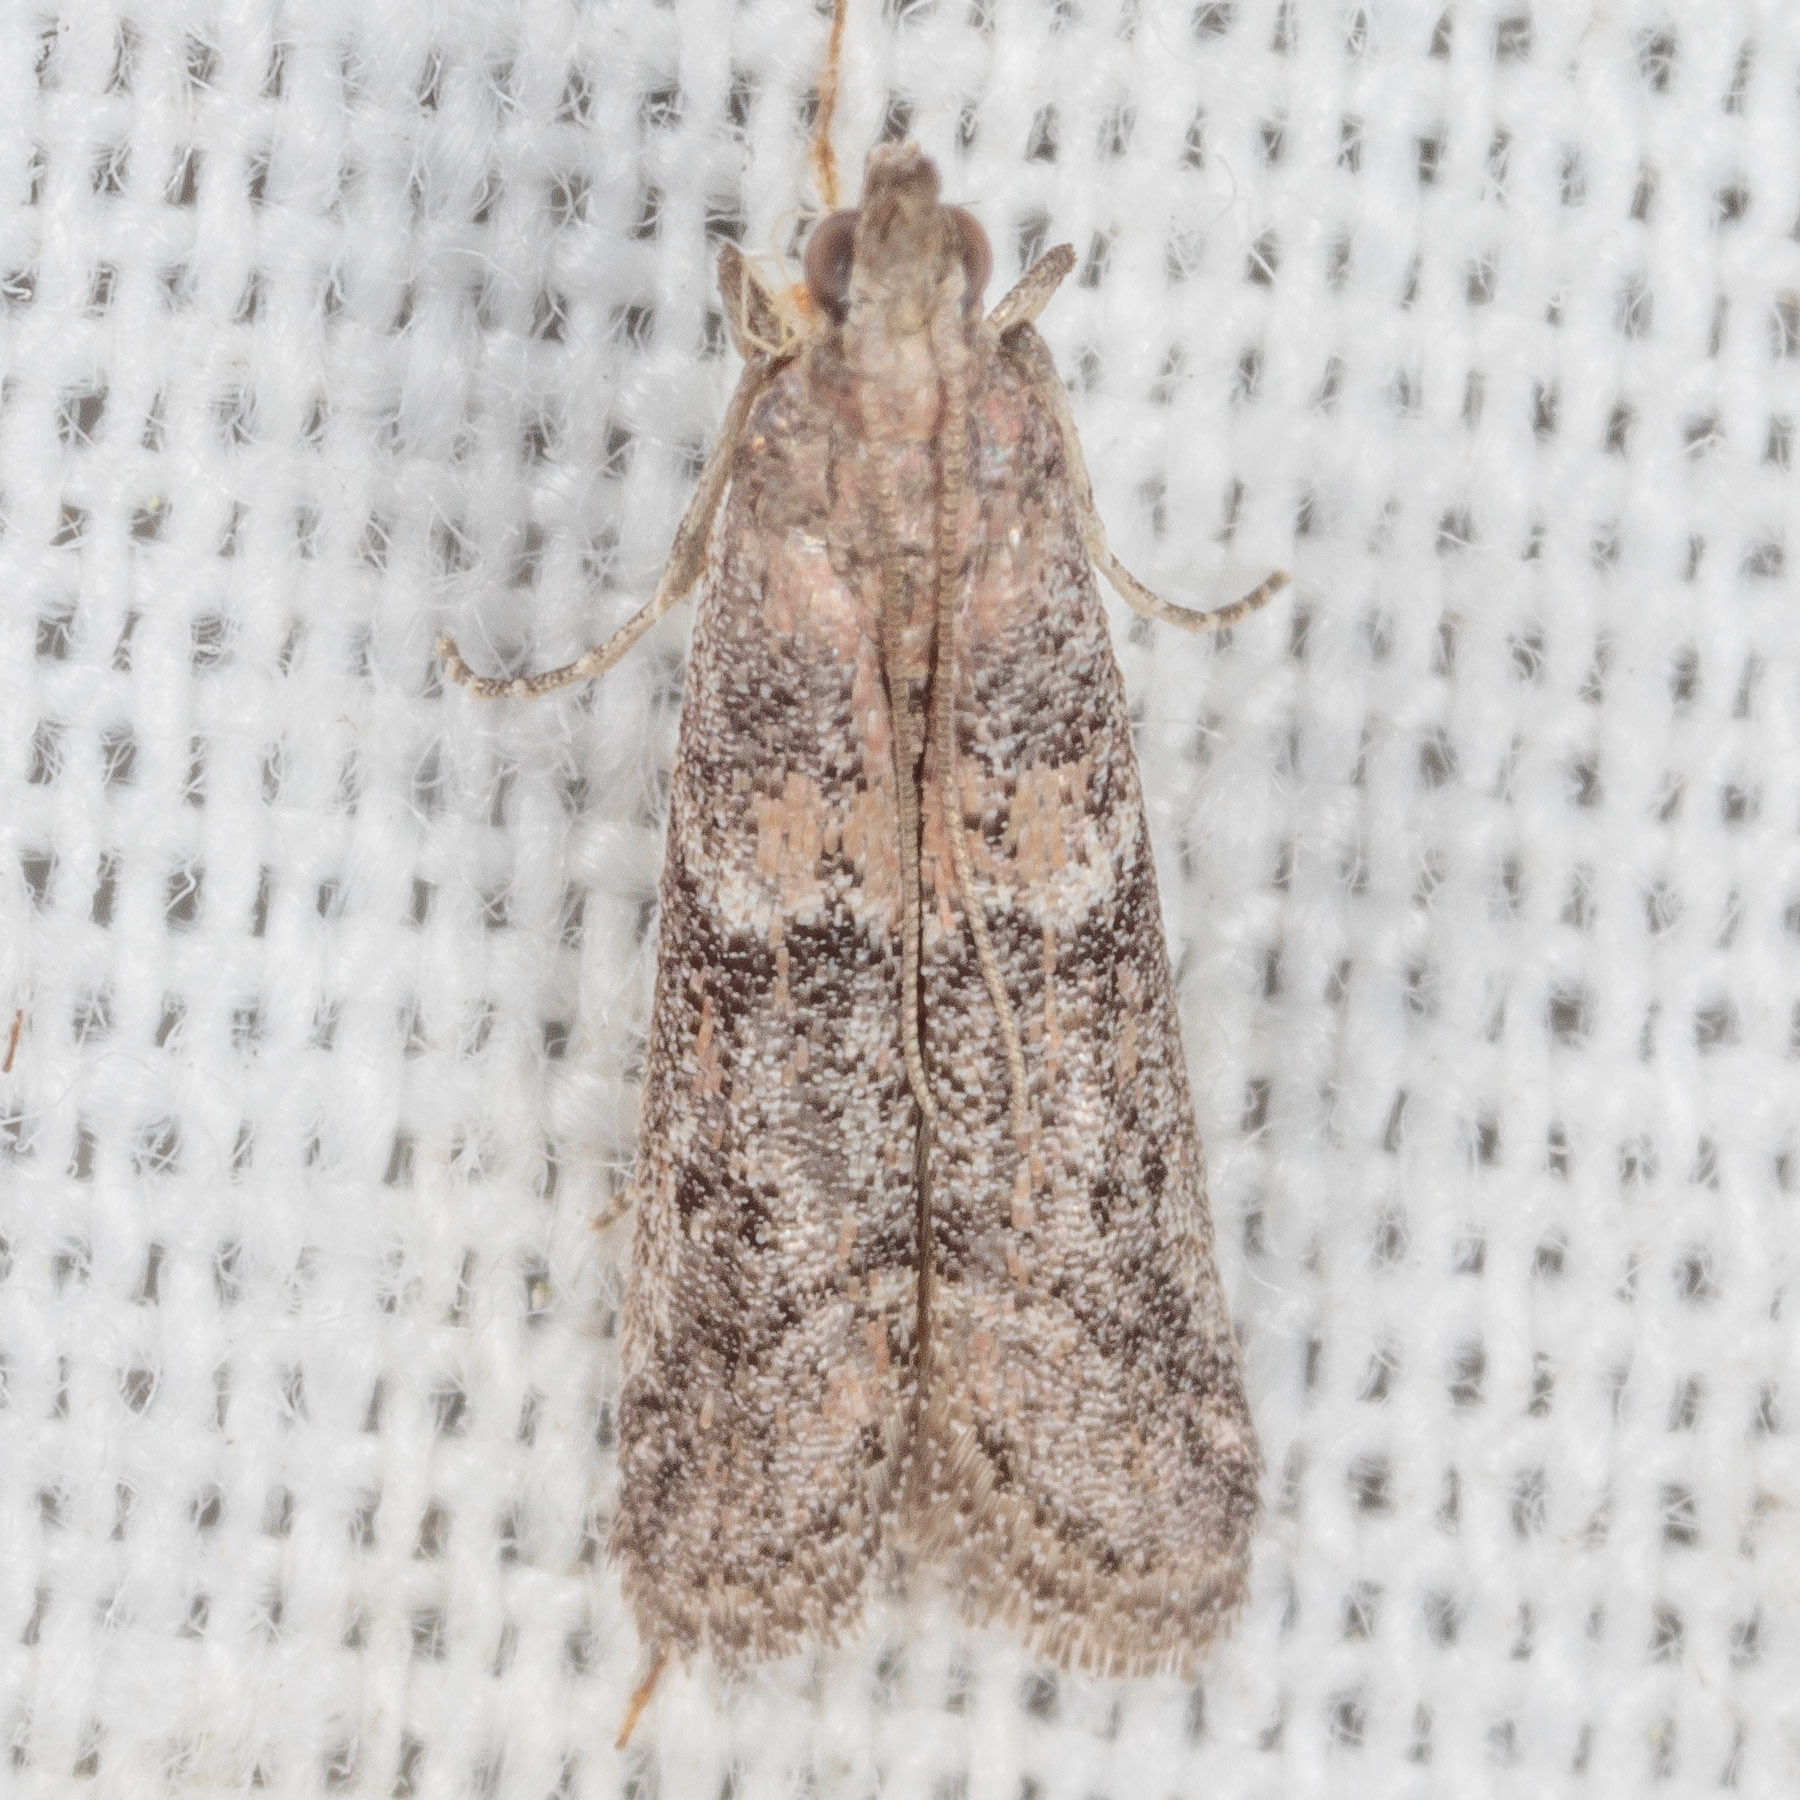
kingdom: Animalia
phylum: Arthropoda
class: Insecta
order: Lepidoptera
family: Pyralidae
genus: Ephestiodes
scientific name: Ephestiodes gilvescentella
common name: Moth
